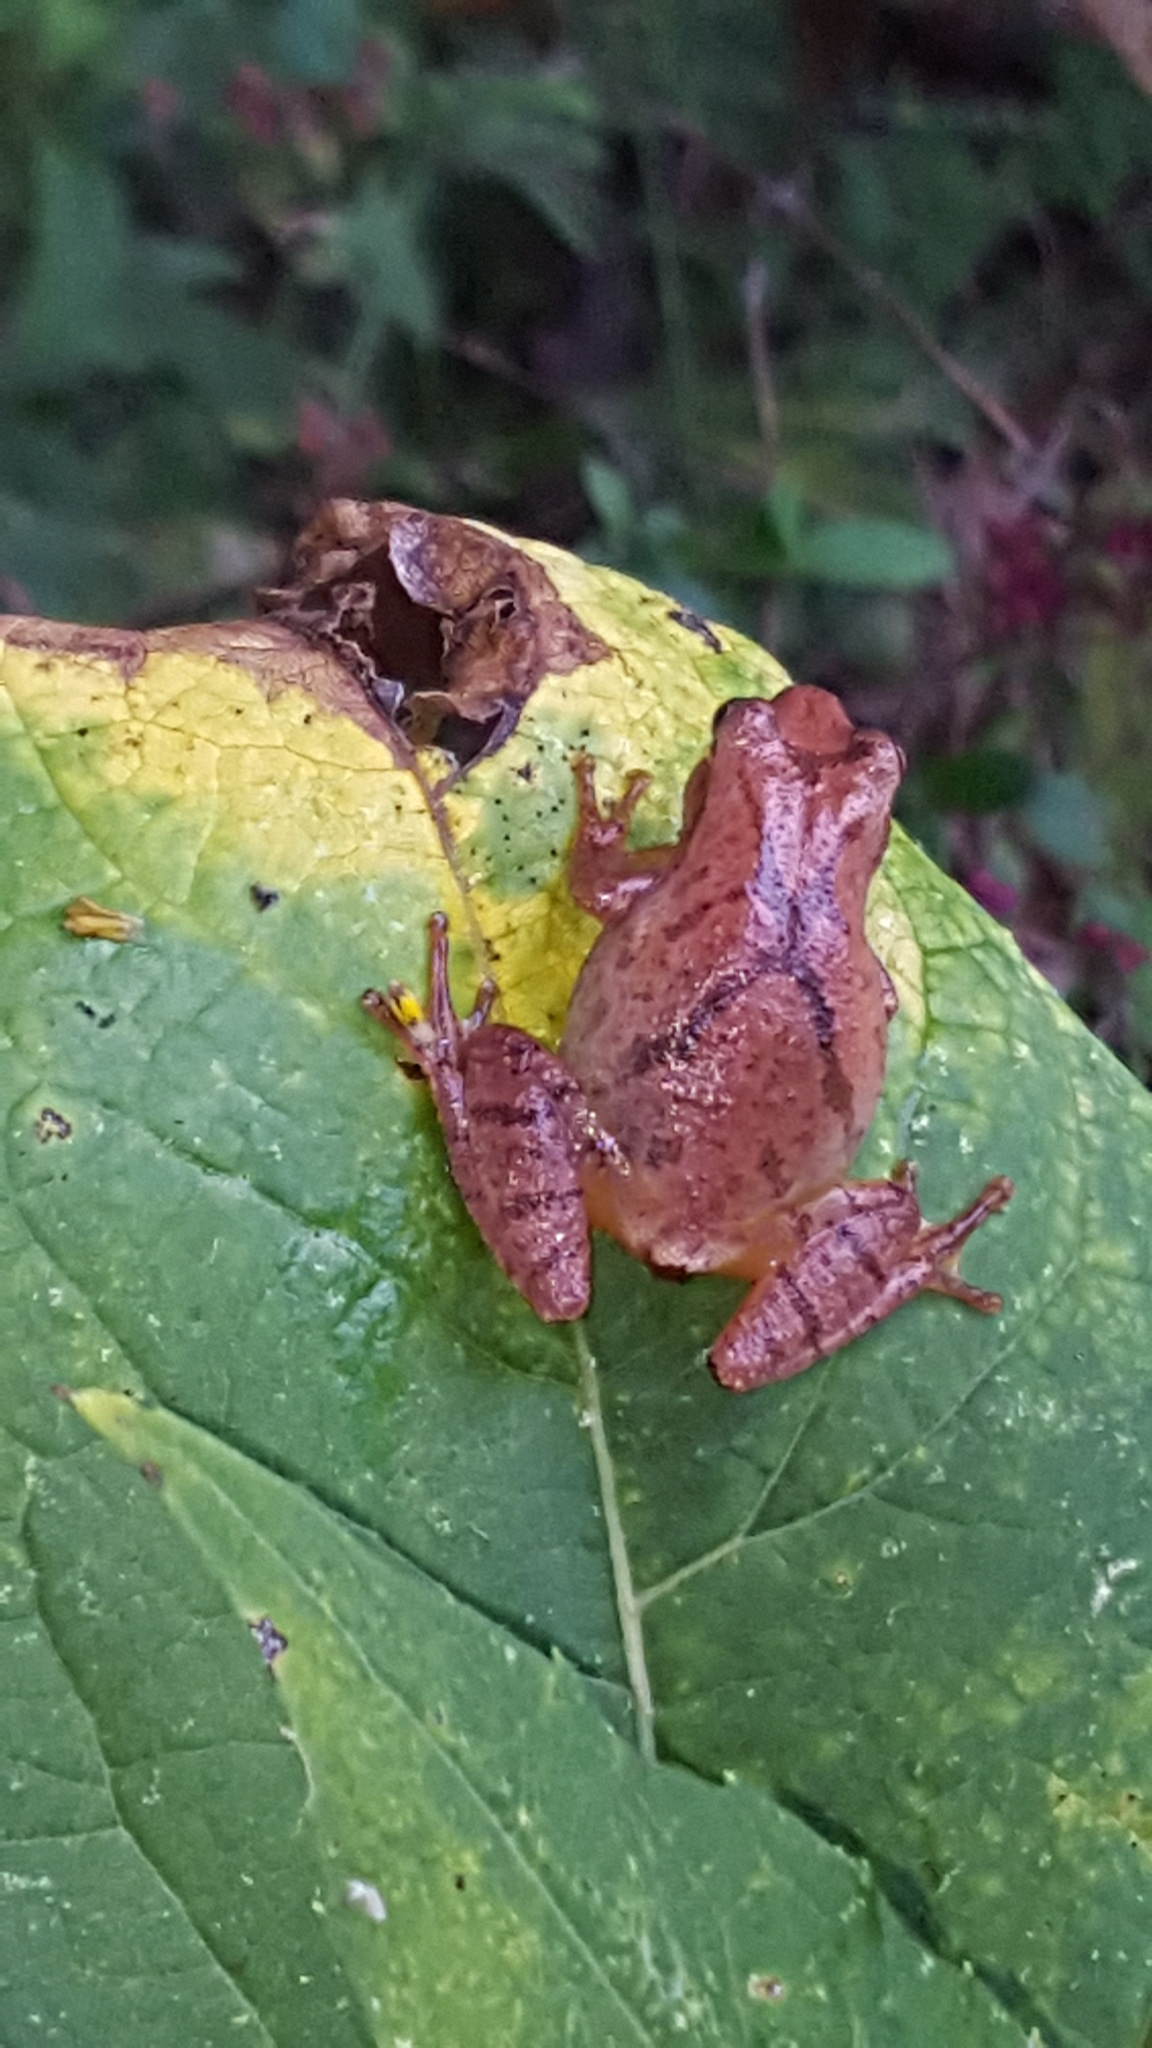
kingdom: Animalia
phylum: Chordata
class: Amphibia
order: Anura
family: Hylidae
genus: Pseudacris
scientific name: Pseudacris crucifer
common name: Spring peeper
